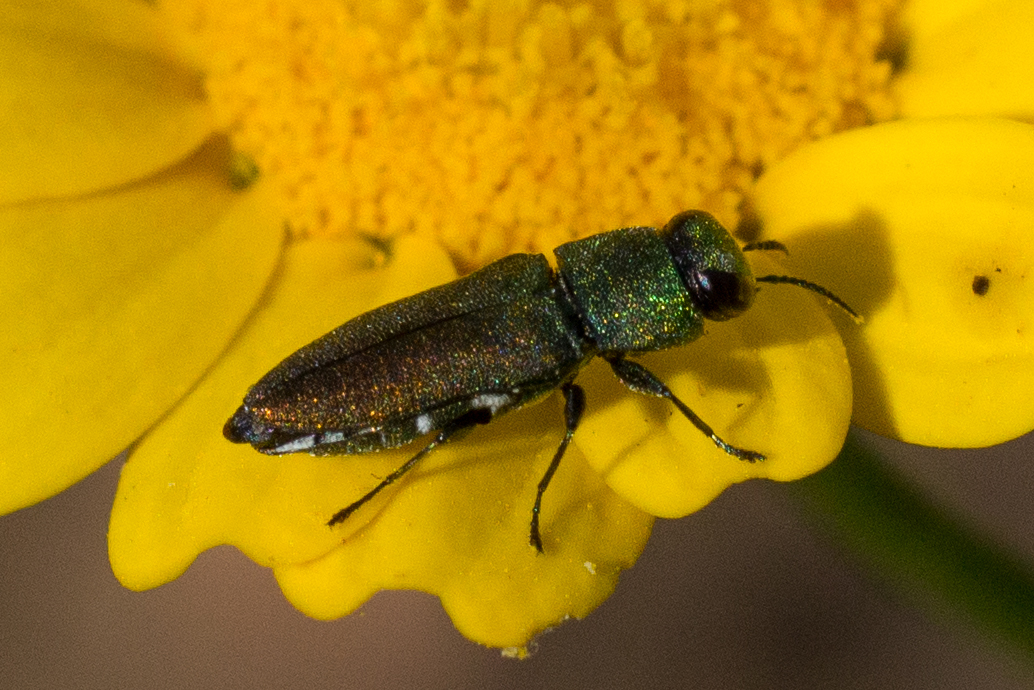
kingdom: Animalia
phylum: Arthropoda
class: Insecta
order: Coleoptera
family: Buprestidae
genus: Anthaxia
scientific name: Anthaxia millefolii
